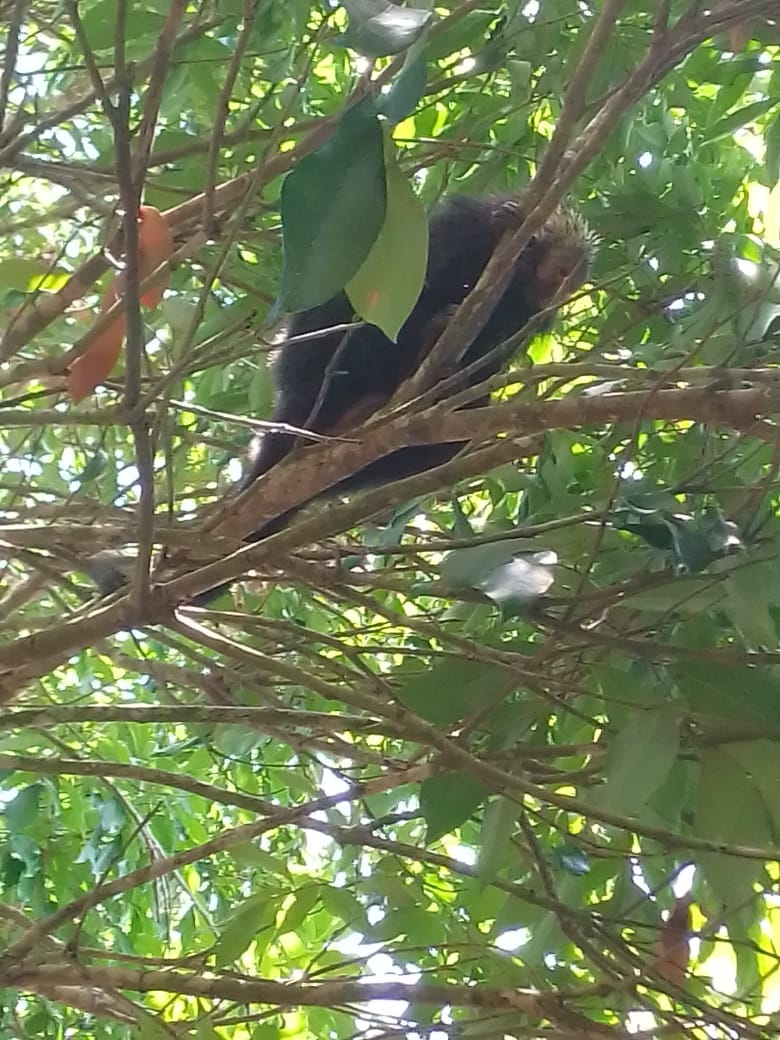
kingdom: Animalia
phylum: Chordata
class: Mammalia
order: Rodentia
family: Erethizontidae
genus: Sphiggurus
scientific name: Sphiggurus mexicanus
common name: Mexican hairy dwarf porcupine
